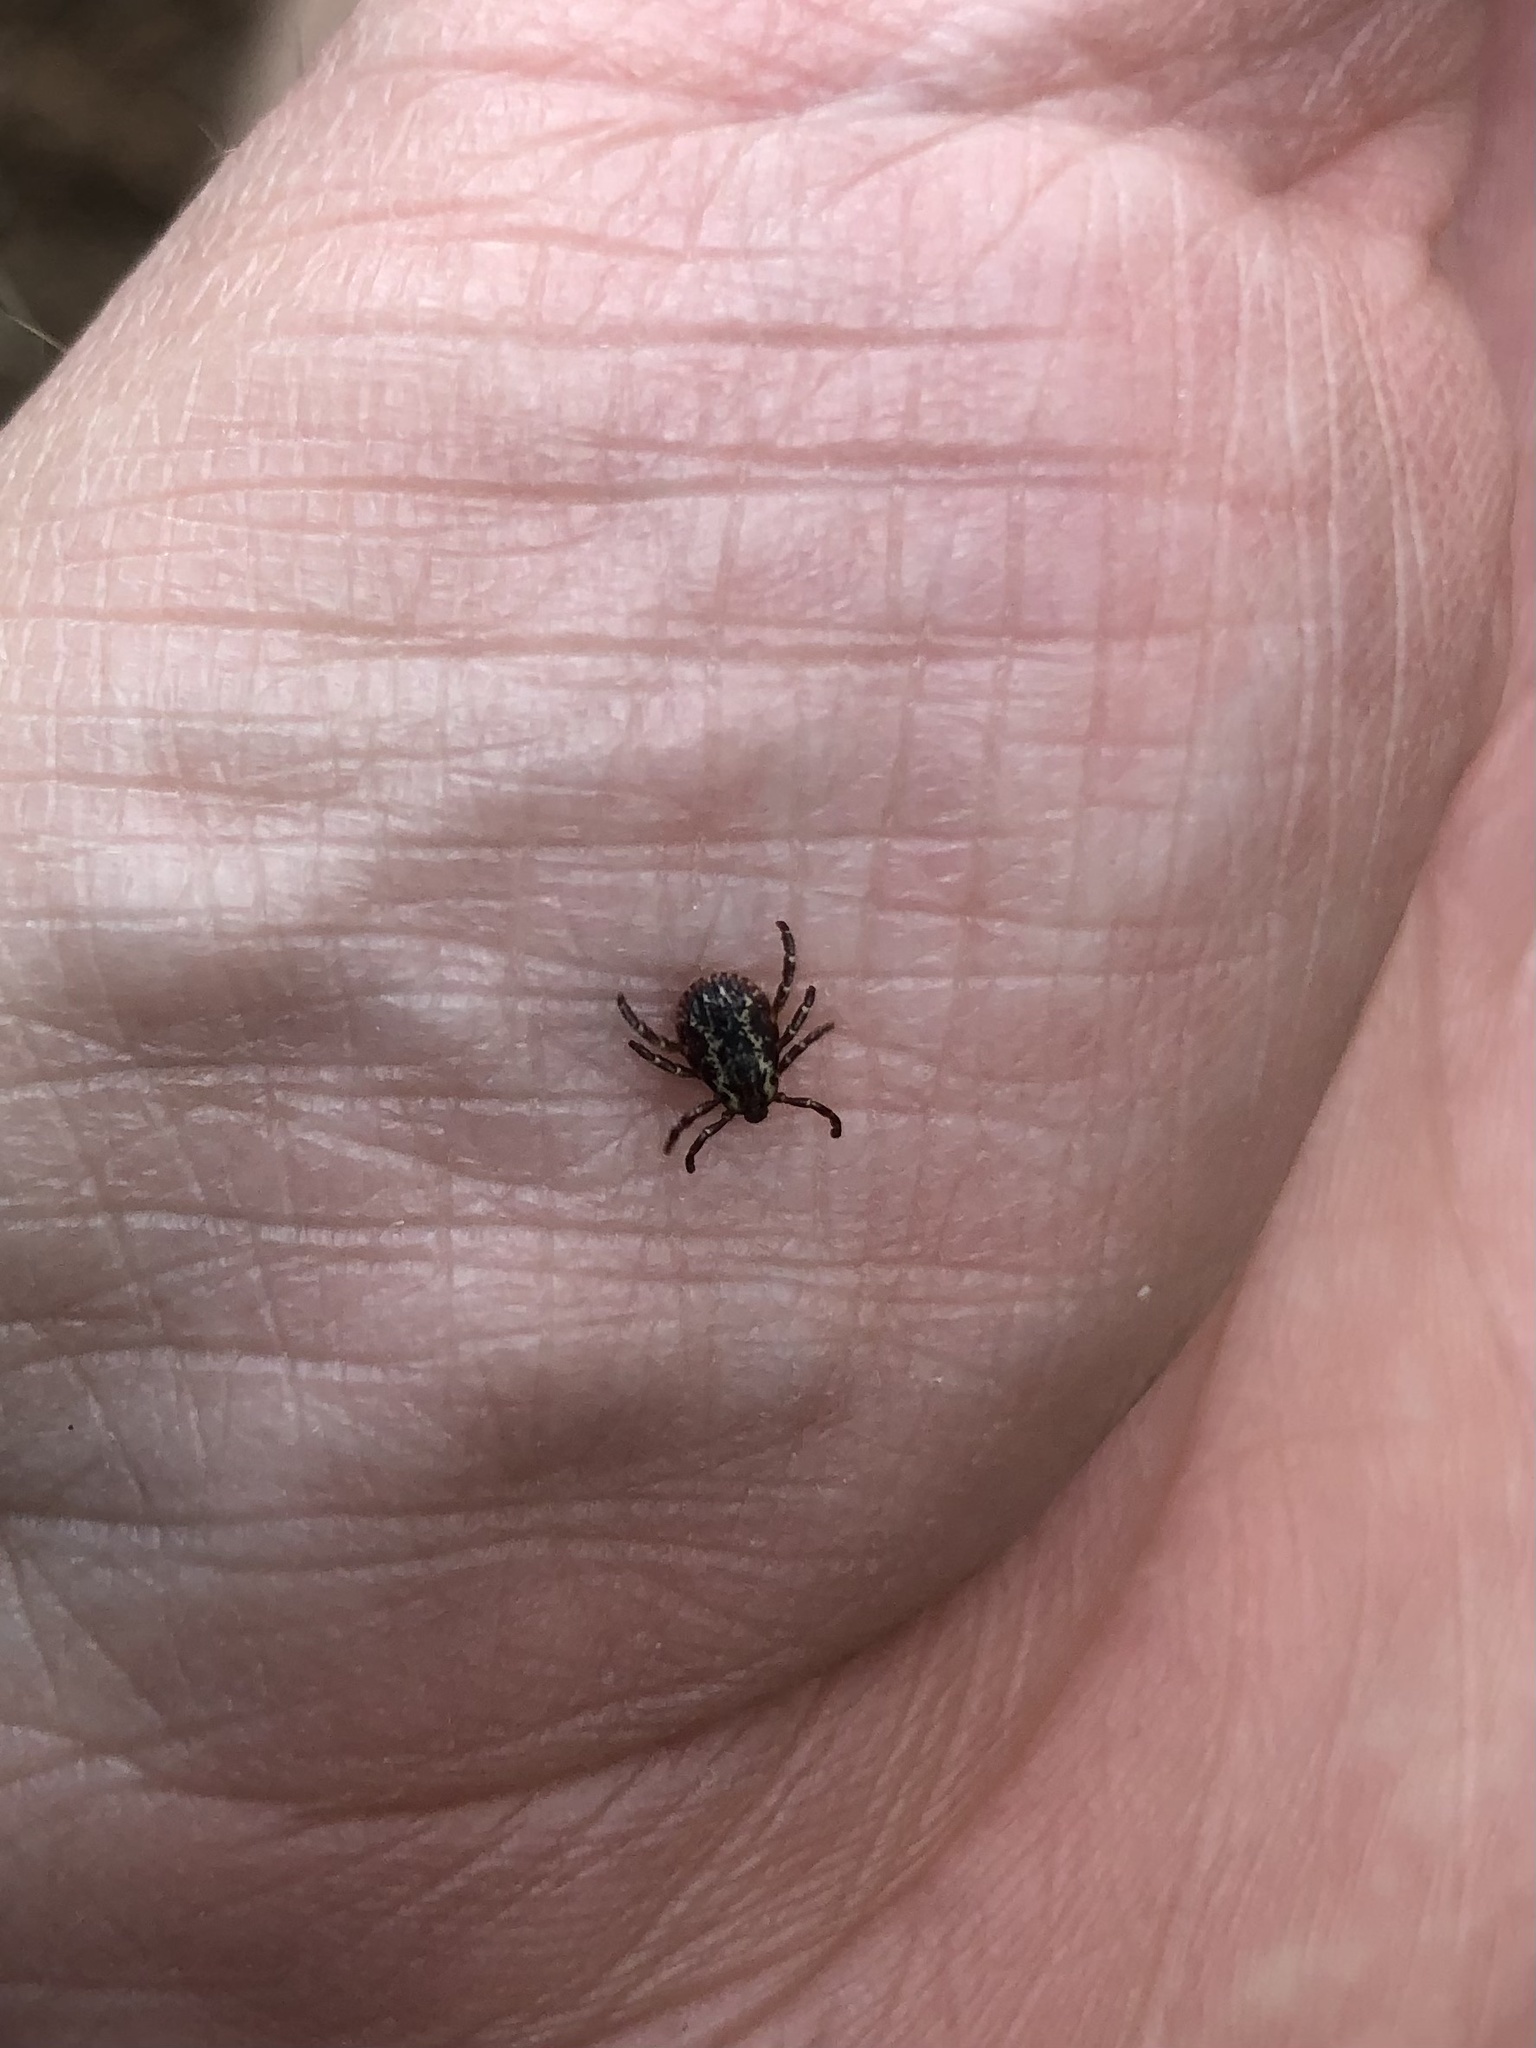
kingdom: Animalia
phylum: Arthropoda
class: Arachnida
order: Ixodida
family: Ixodidae
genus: Dermacentor
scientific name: Dermacentor variabilis
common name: American dog tick
